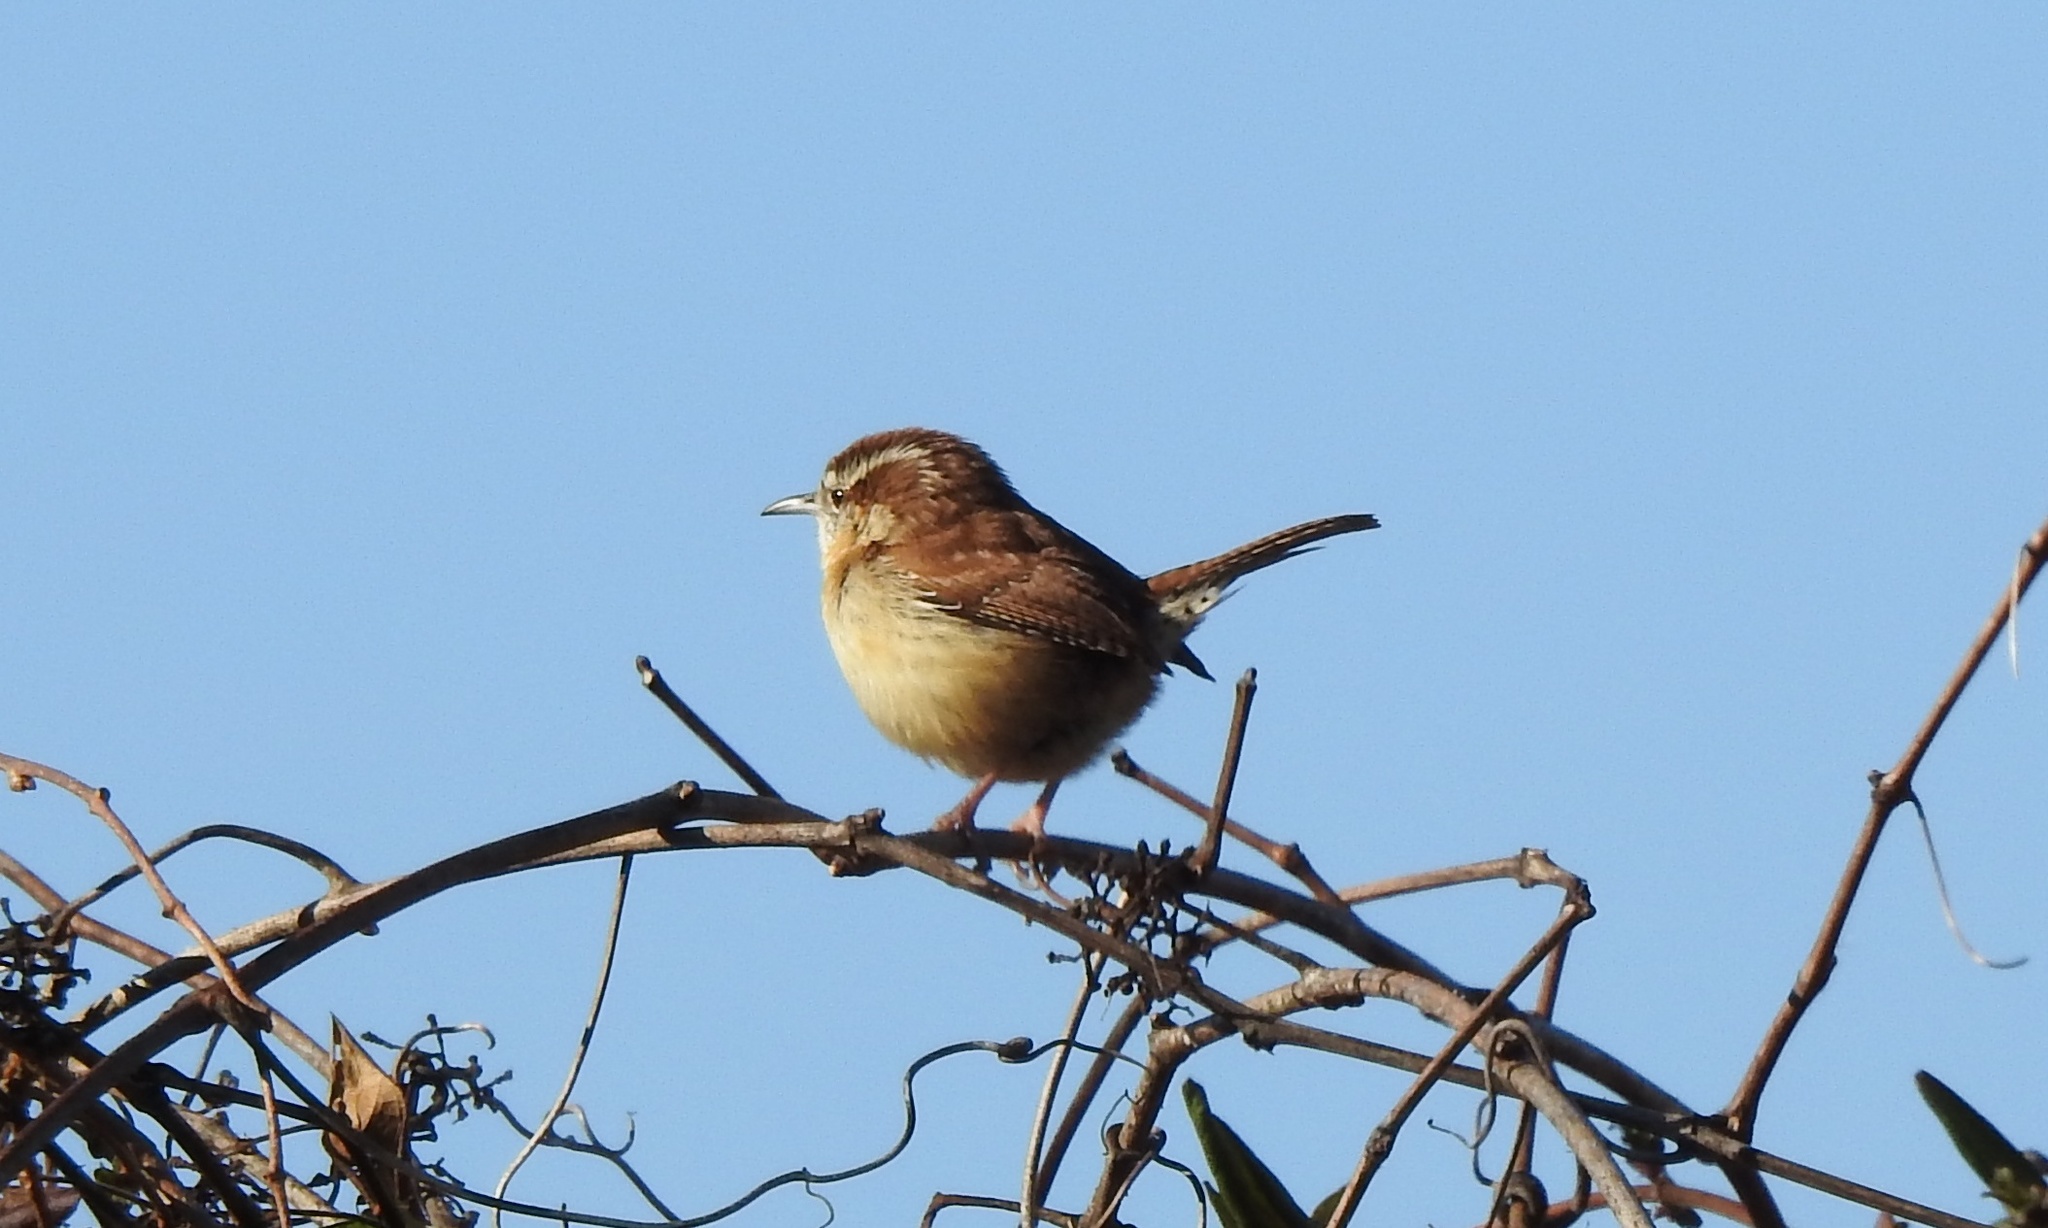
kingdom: Animalia
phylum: Chordata
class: Aves
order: Passeriformes
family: Troglodytidae
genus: Thryothorus
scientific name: Thryothorus ludovicianus
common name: Carolina wren
